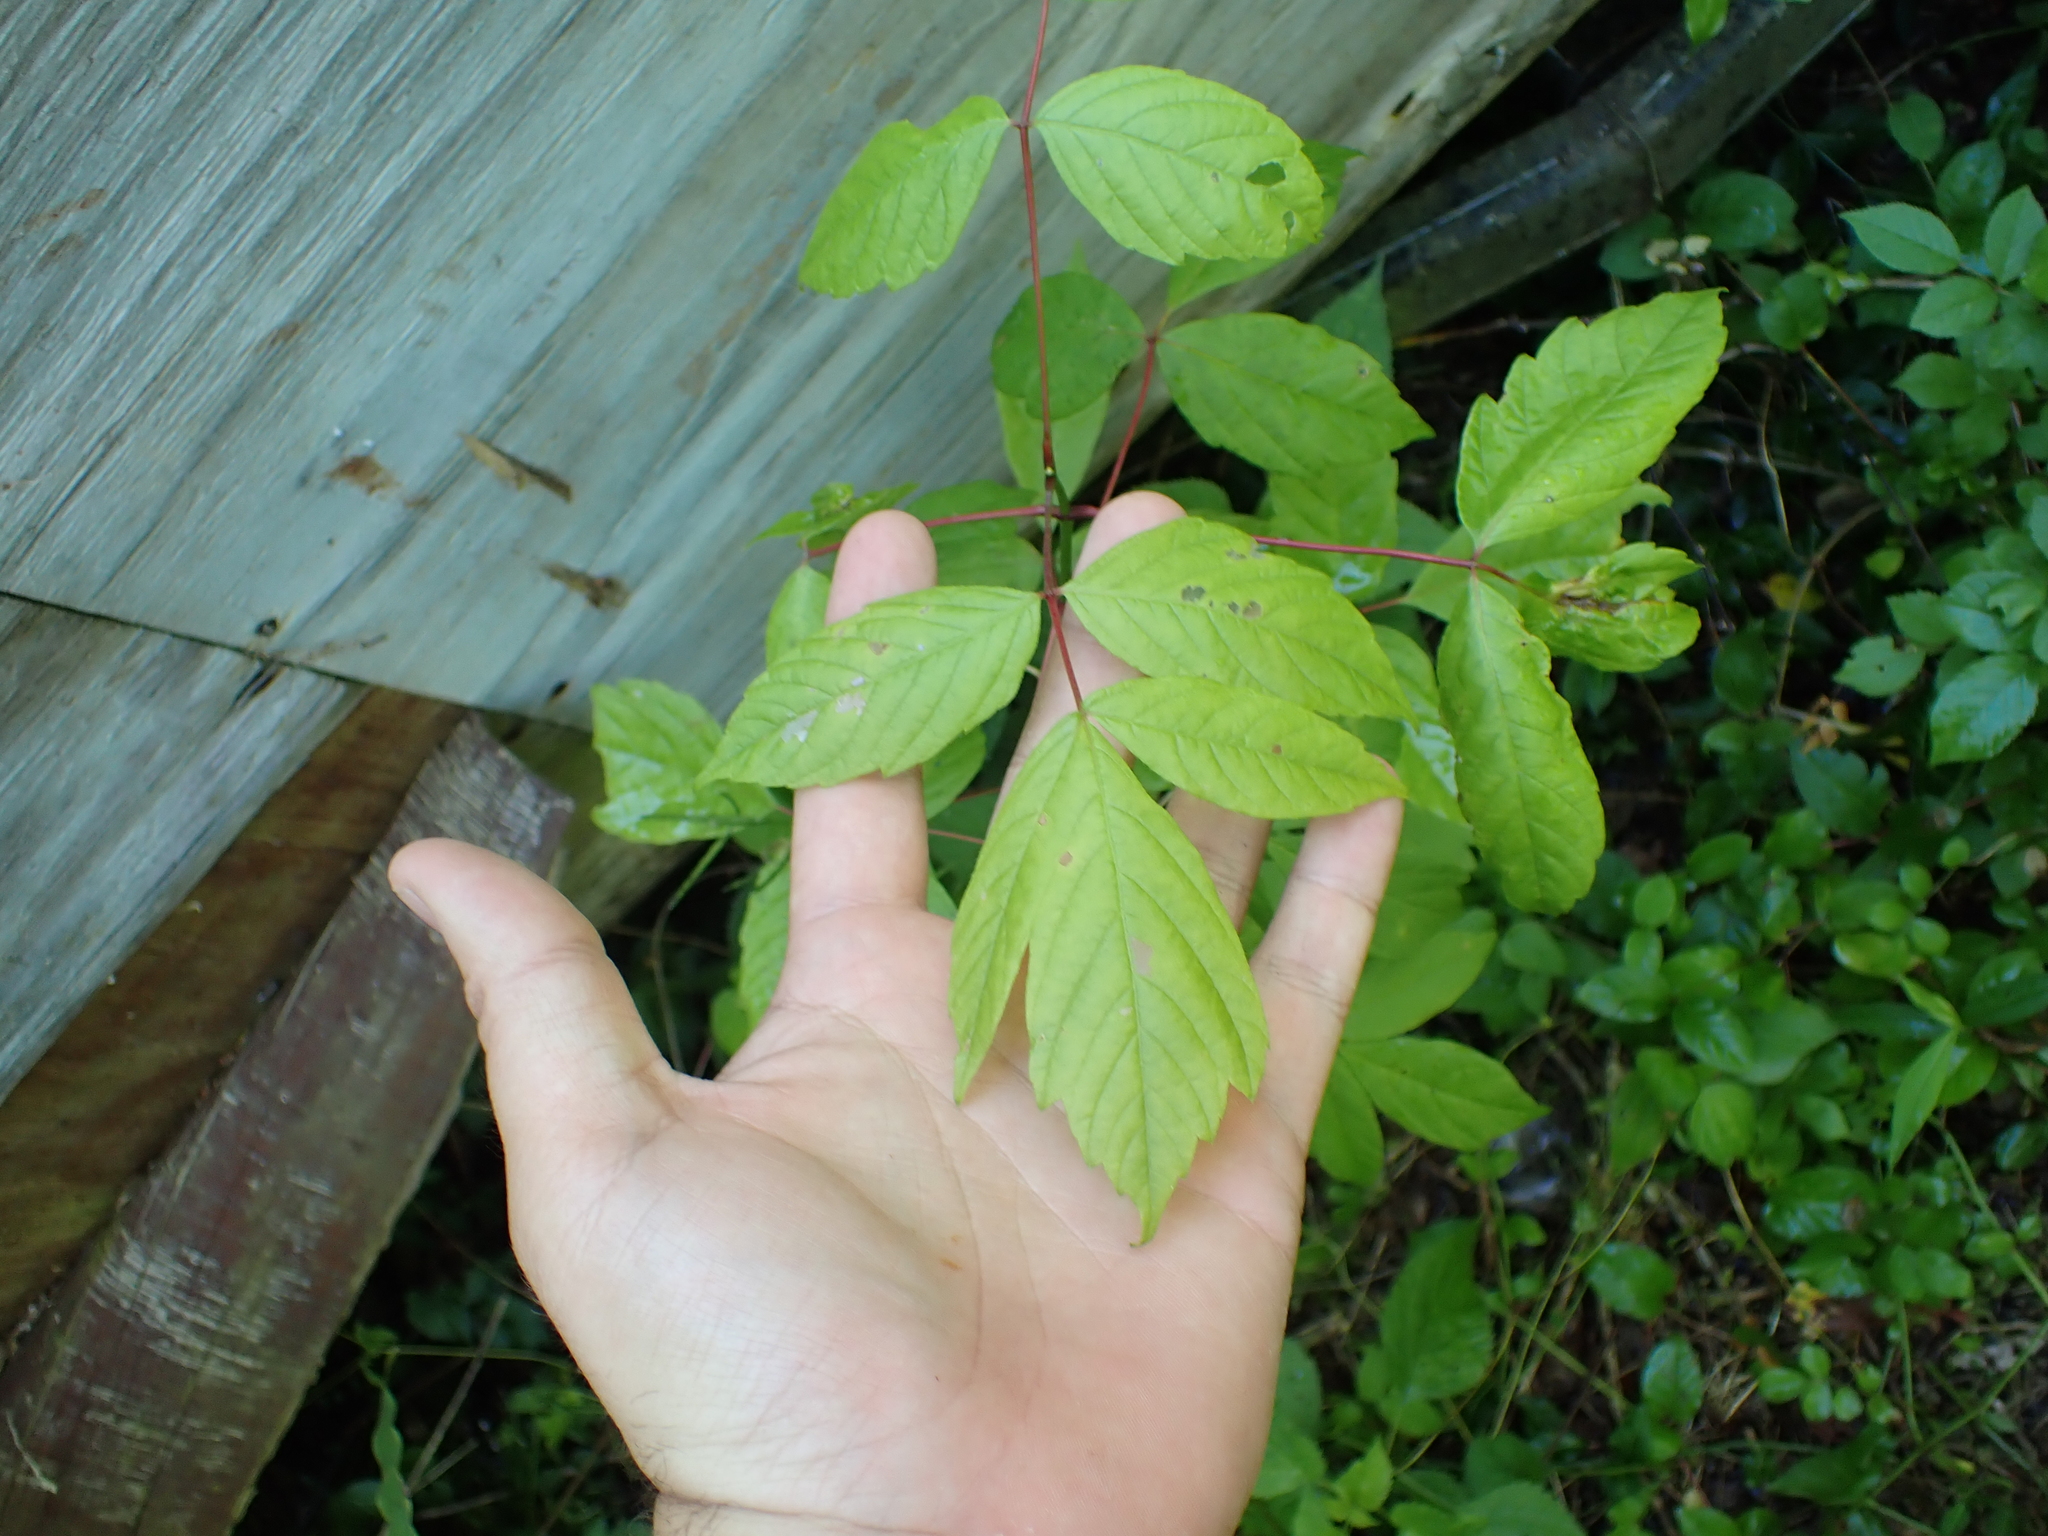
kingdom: Plantae
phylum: Tracheophyta
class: Magnoliopsida
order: Sapindales
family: Sapindaceae
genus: Acer
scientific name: Acer negundo
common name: Ashleaf maple
